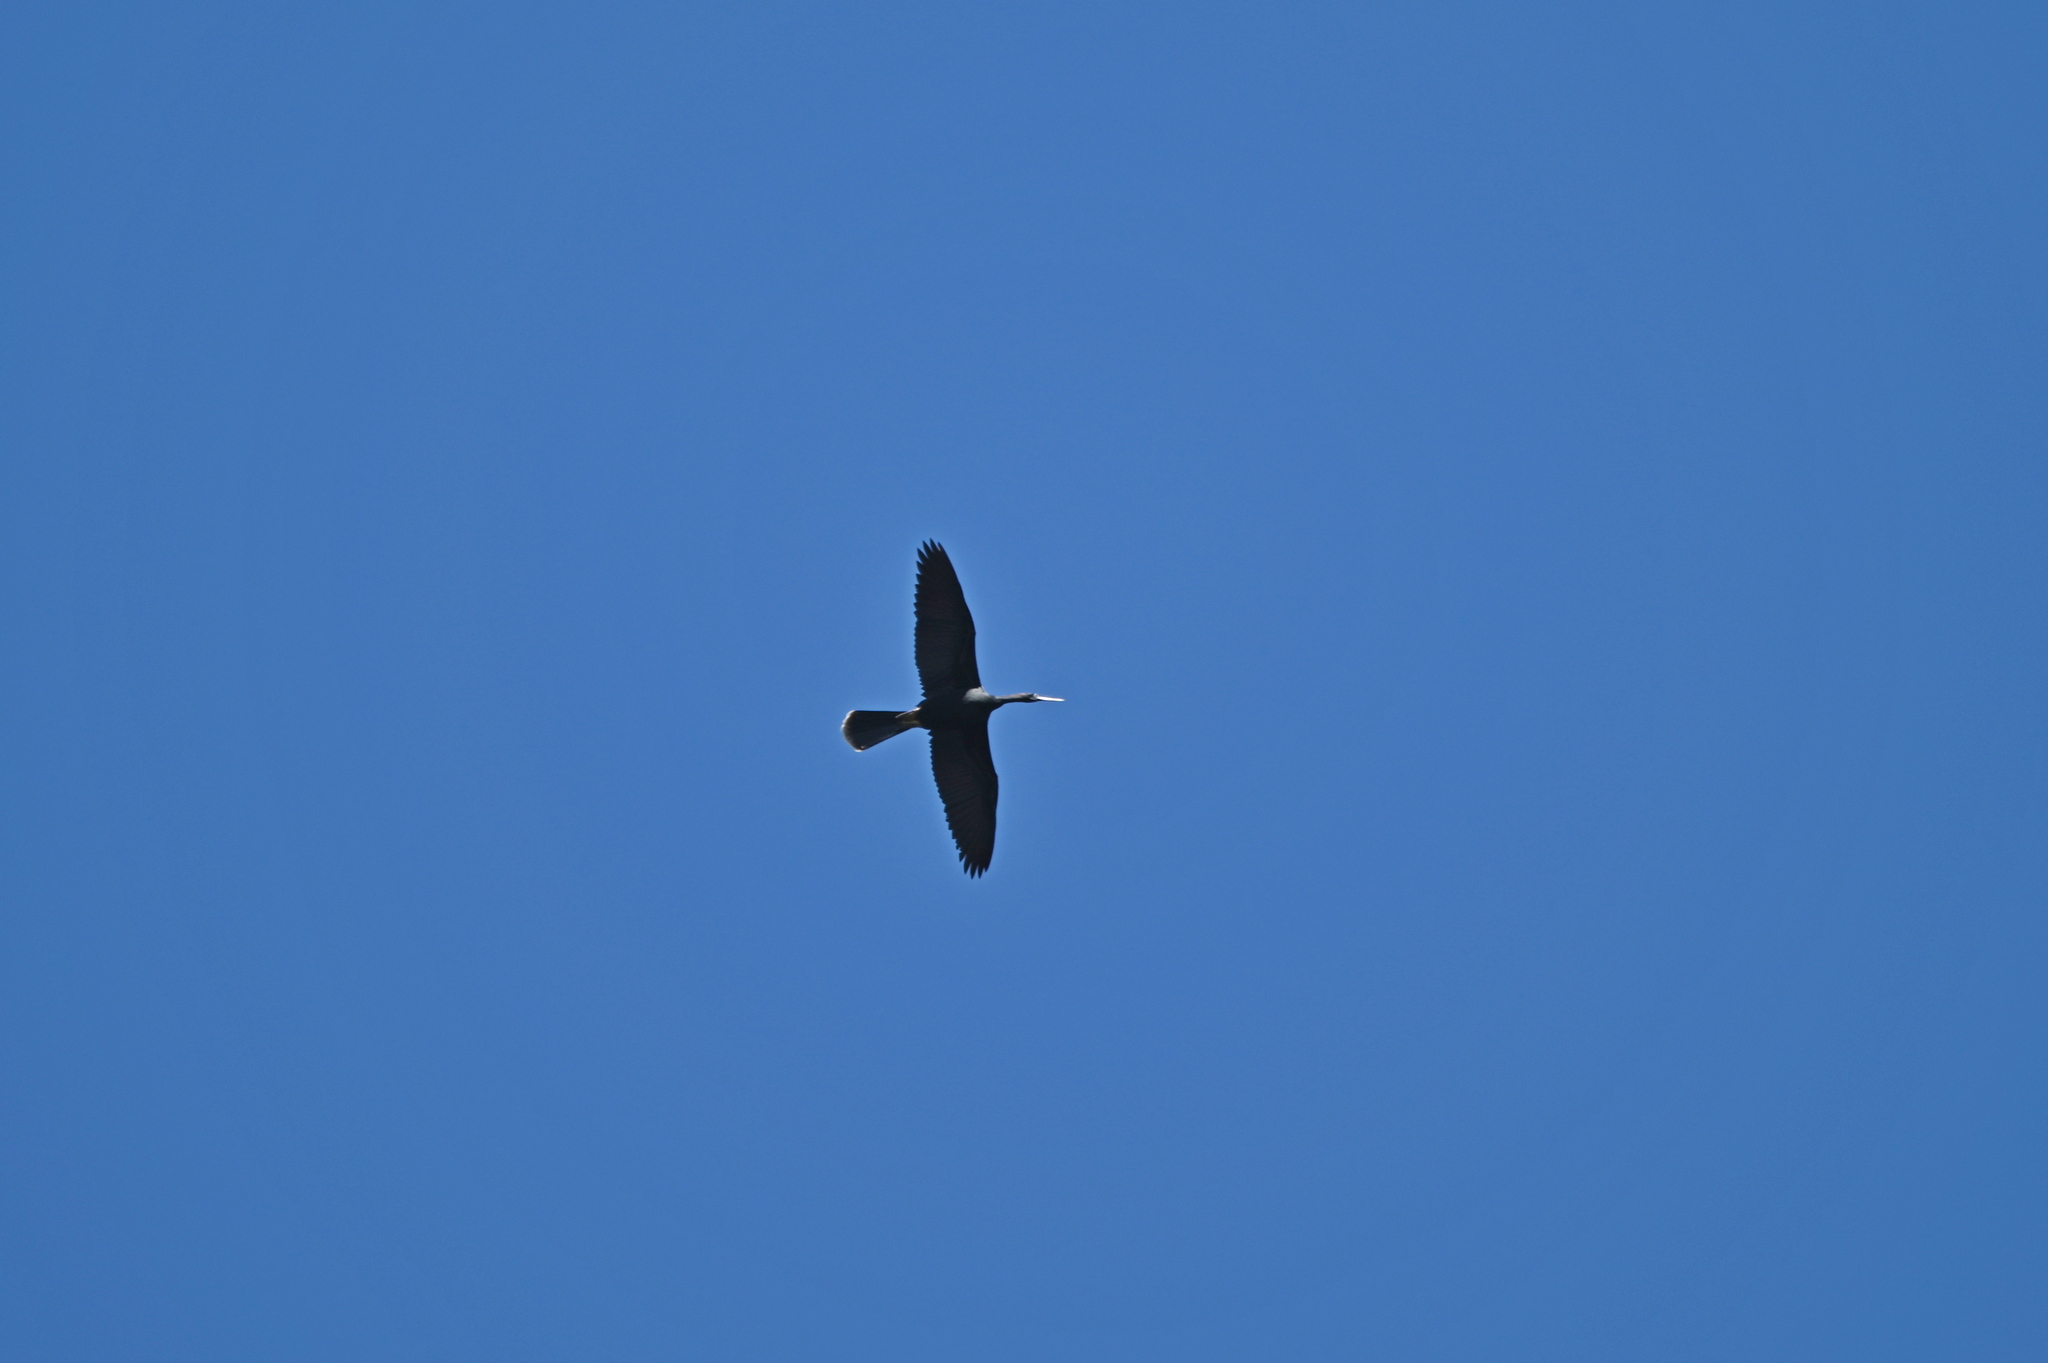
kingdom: Animalia
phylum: Chordata
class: Aves
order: Suliformes
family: Anhingidae
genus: Anhinga
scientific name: Anhinga anhinga
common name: Anhinga
